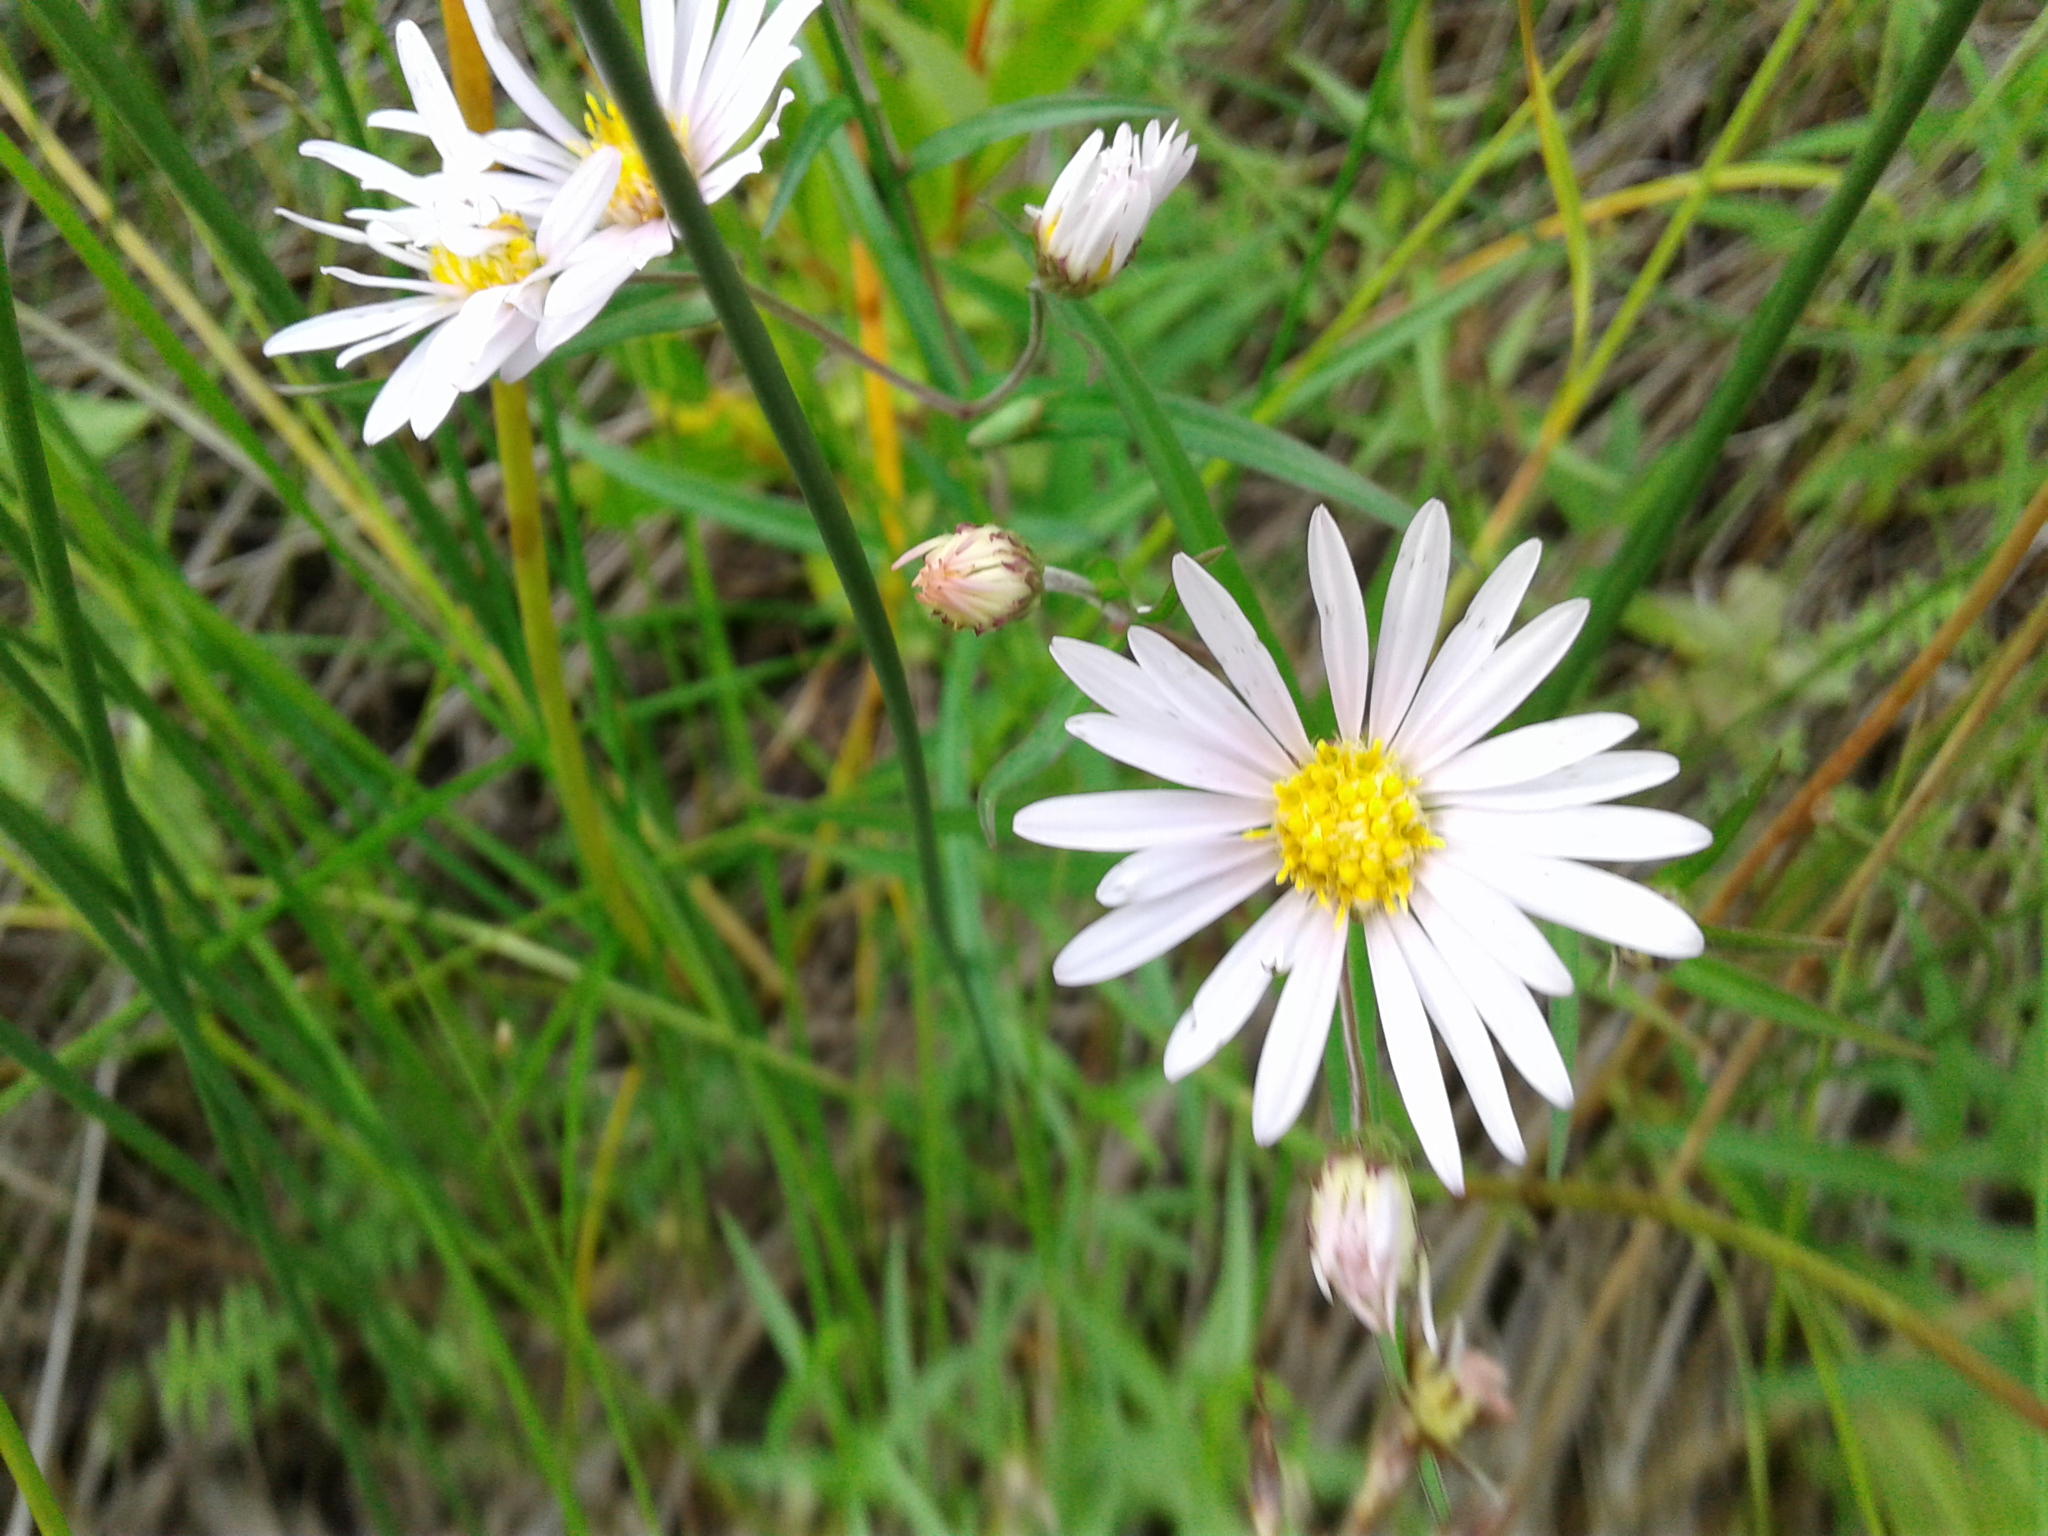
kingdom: Plantae
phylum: Tracheophyta
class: Magnoliopsida
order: Asterales
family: Asteraceae
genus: Symphyotrichum
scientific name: Symphyotrichum boreale
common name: Northern bog aster
